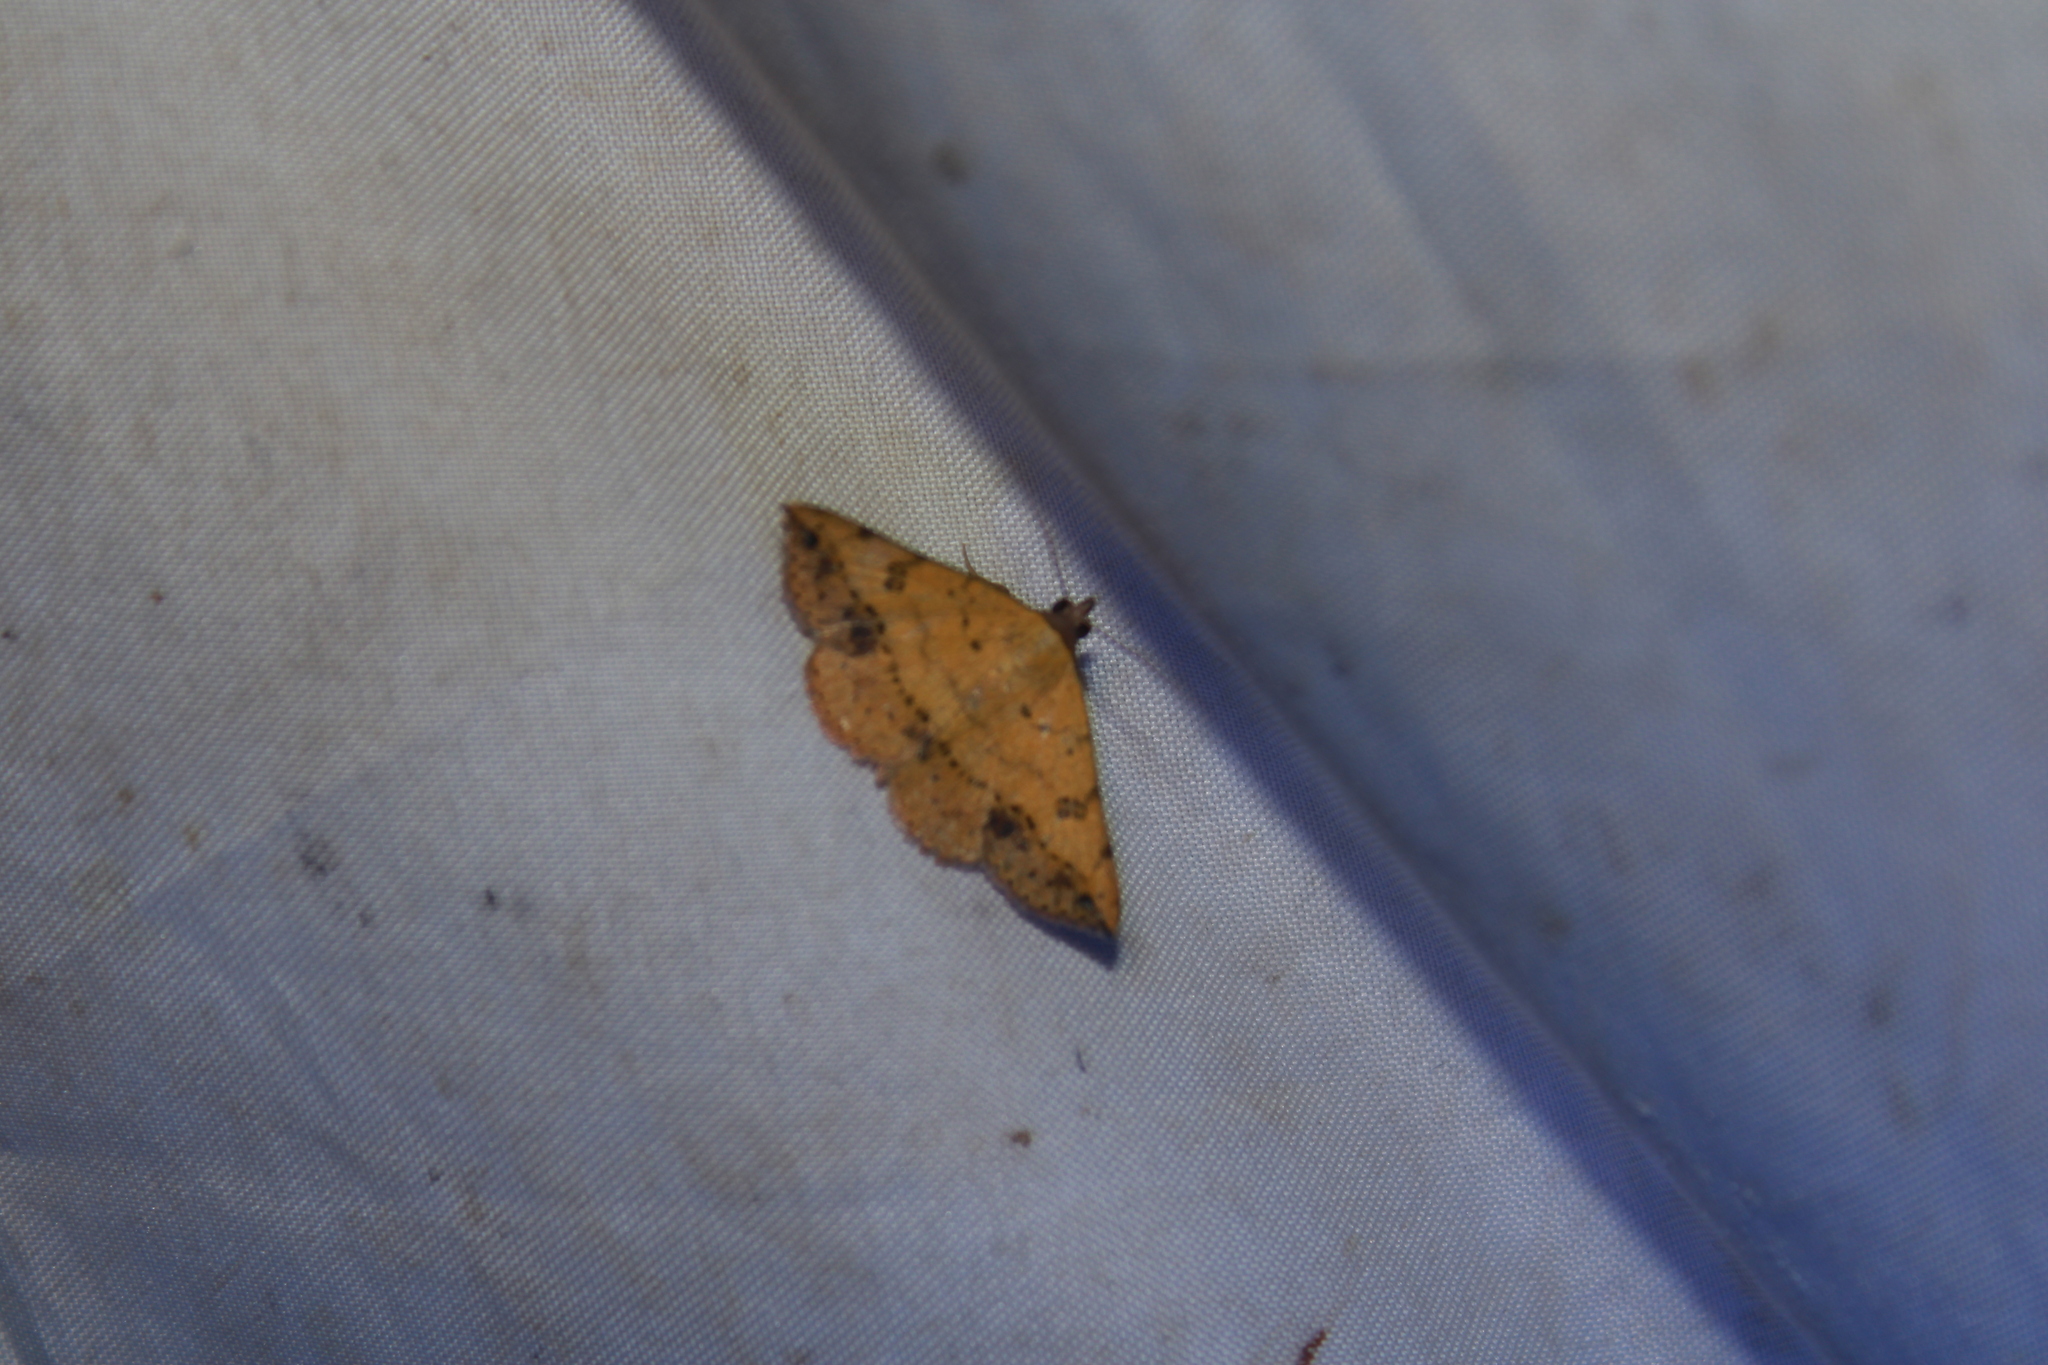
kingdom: Animalia
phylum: Arthropoda
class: Insecta
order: Lepidoptera
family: Erebidae
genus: Hemeroplanis
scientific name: Hemeroplanis scopulepes
